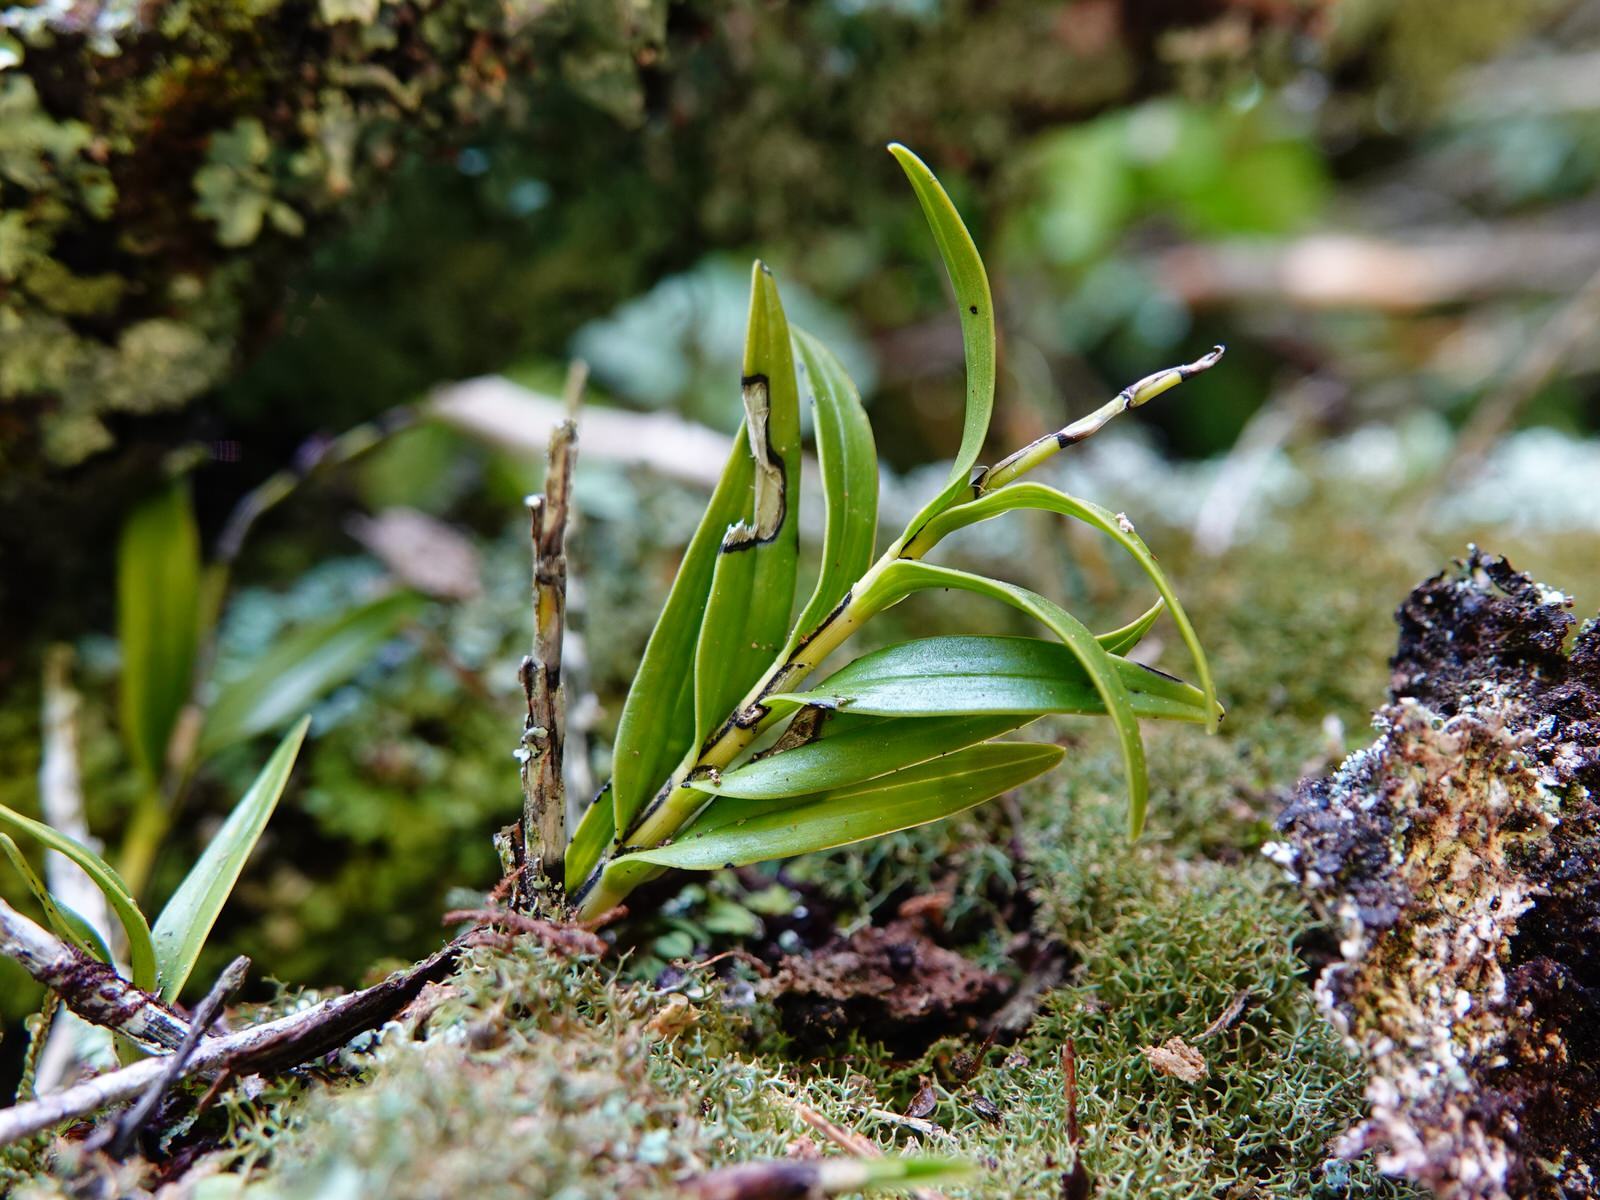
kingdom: Plantae
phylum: Tracheophyta
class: Liliopsida
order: Asparagales
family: Orchidaceae
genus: Earina
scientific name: Earina autumnalis
